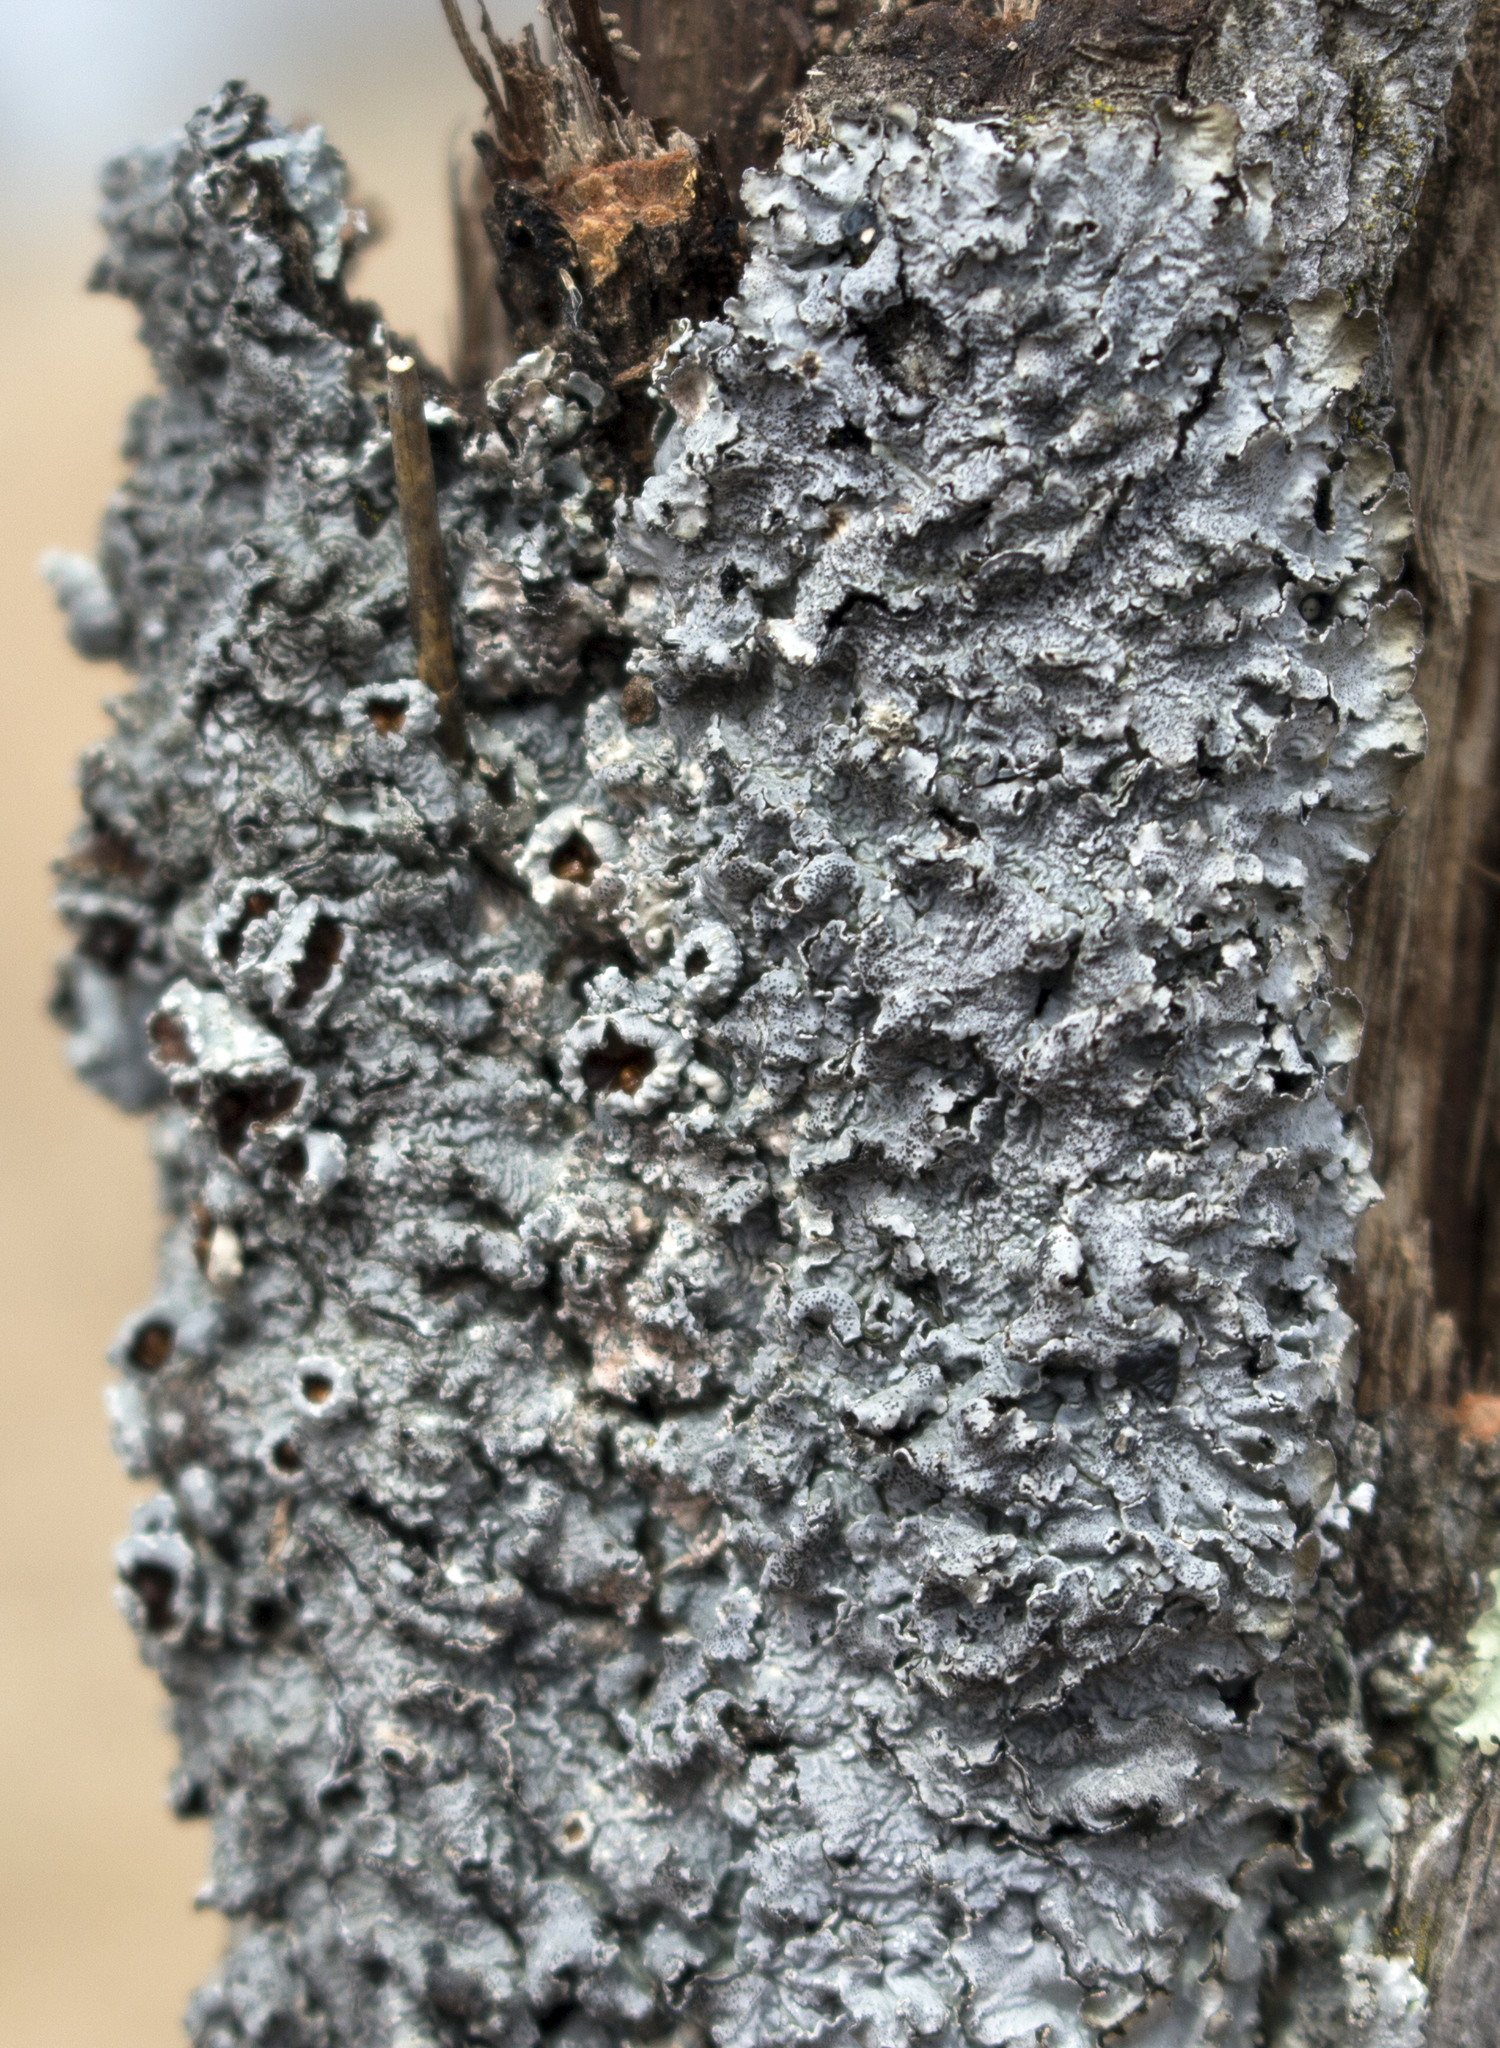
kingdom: Fungi
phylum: Ascomycota
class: Lecanoromycetes
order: Lecanorales
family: Parmeliaceae
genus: Punctelia
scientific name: Punctelia bolliana
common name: Eastern speckled shield lichen
